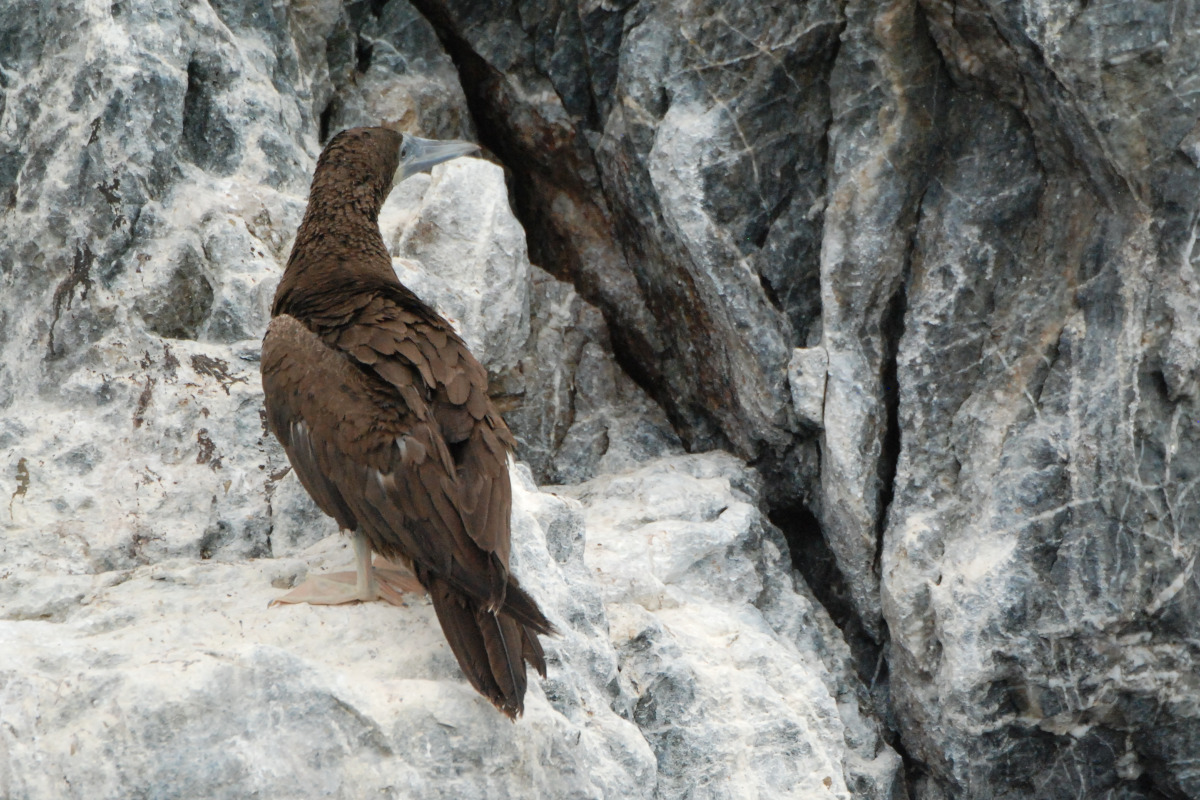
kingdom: Animalia
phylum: Chordata
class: Aves
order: Suliformes
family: Sulidae
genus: Sula
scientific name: Sula leucogaster
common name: Brown booby
